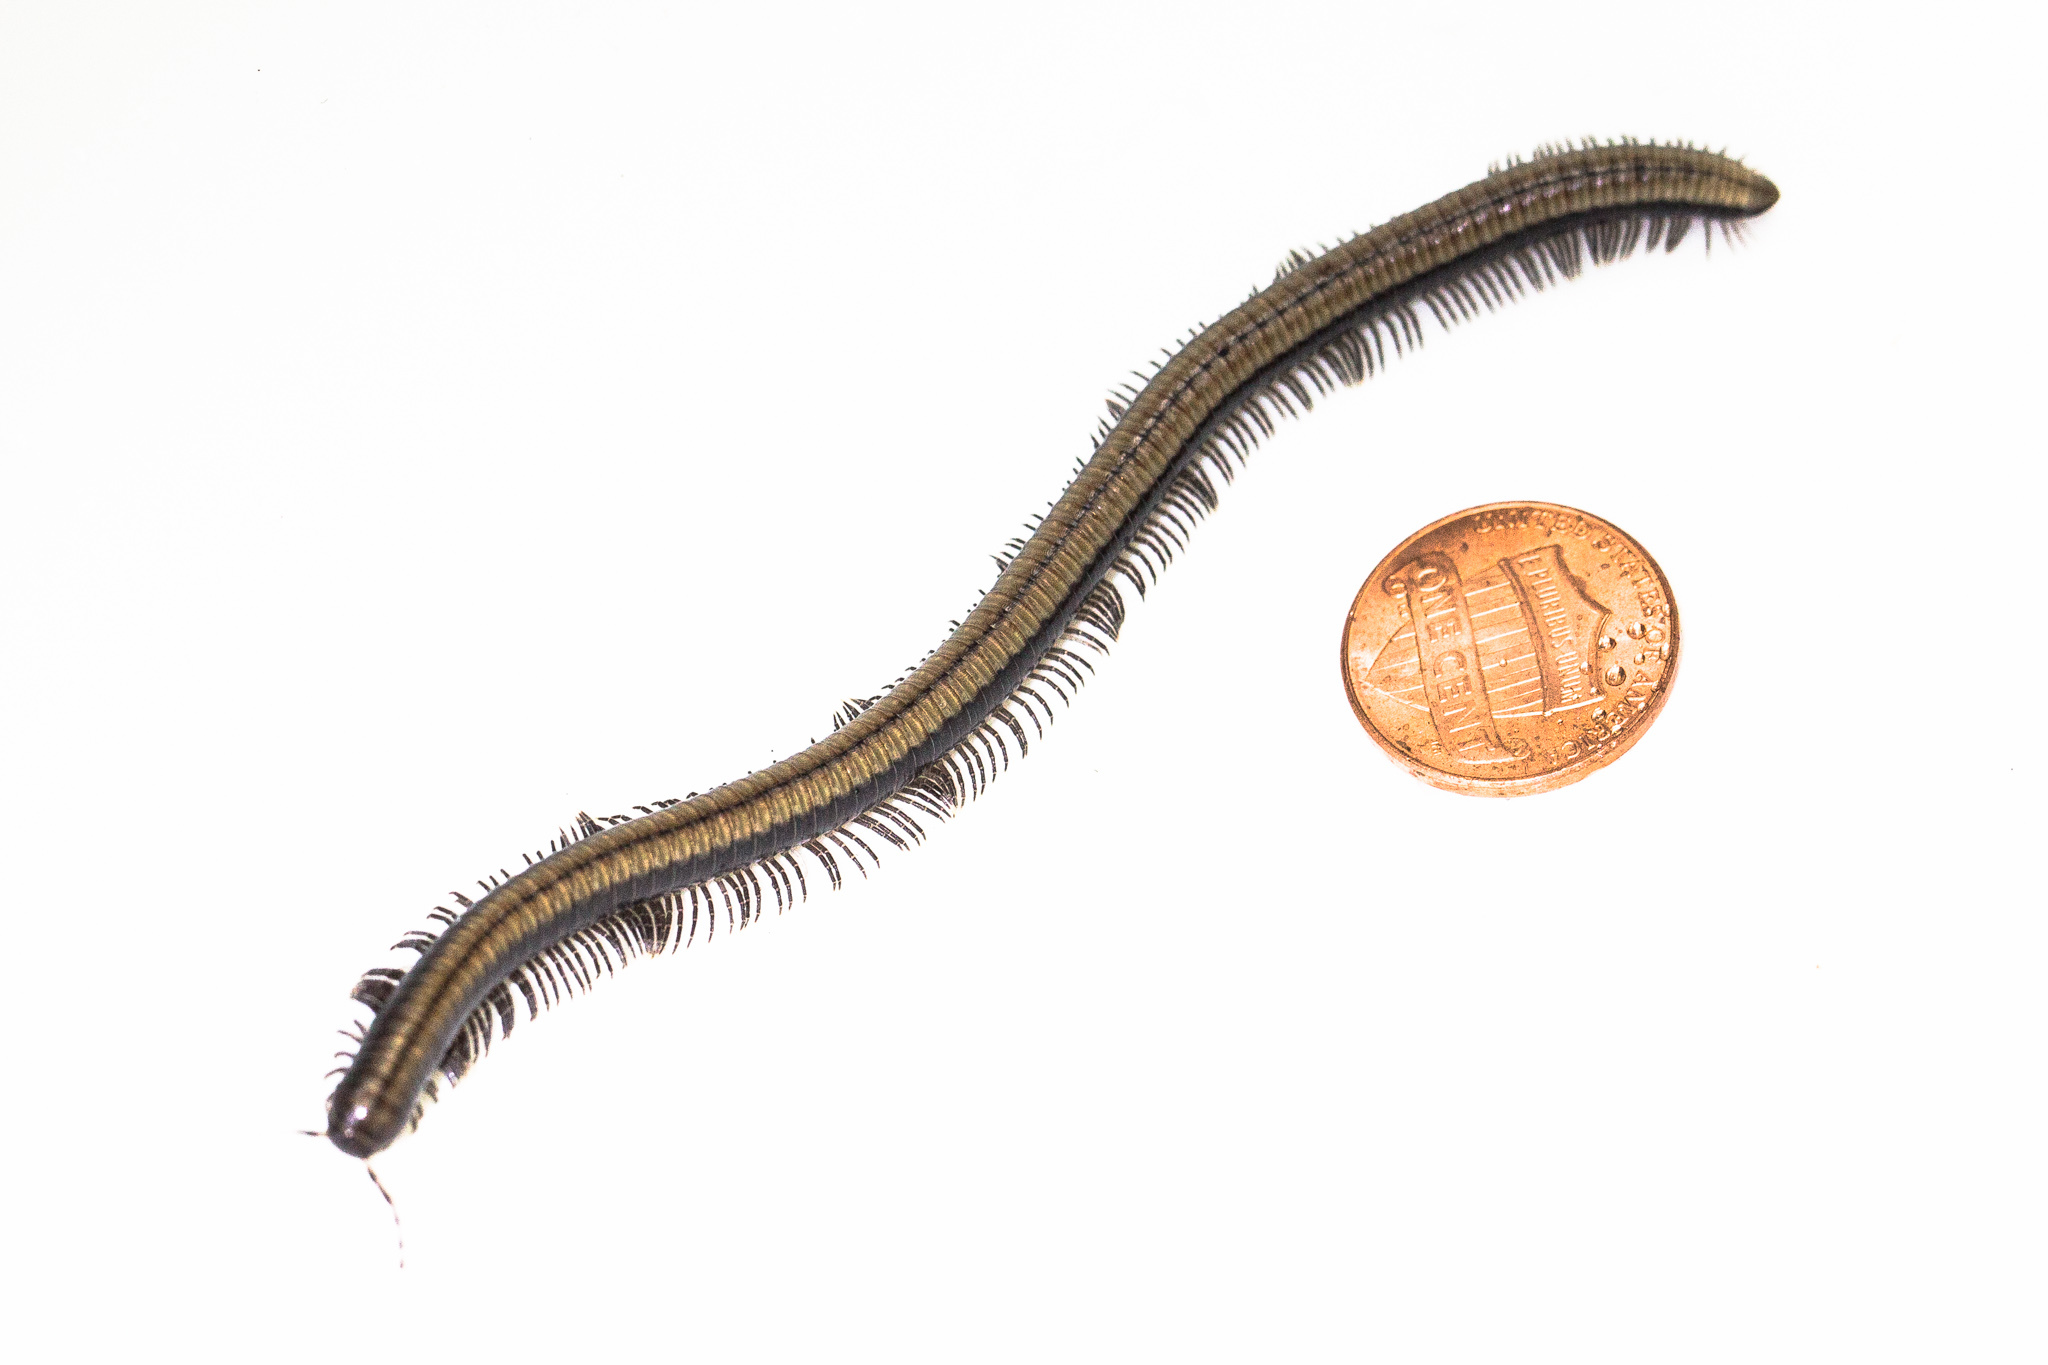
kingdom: Animalia
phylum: Arthropoda
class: Diplopoda
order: Julida
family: Paeromopodidae
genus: Californiulus
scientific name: Californiulus yosemitensis
